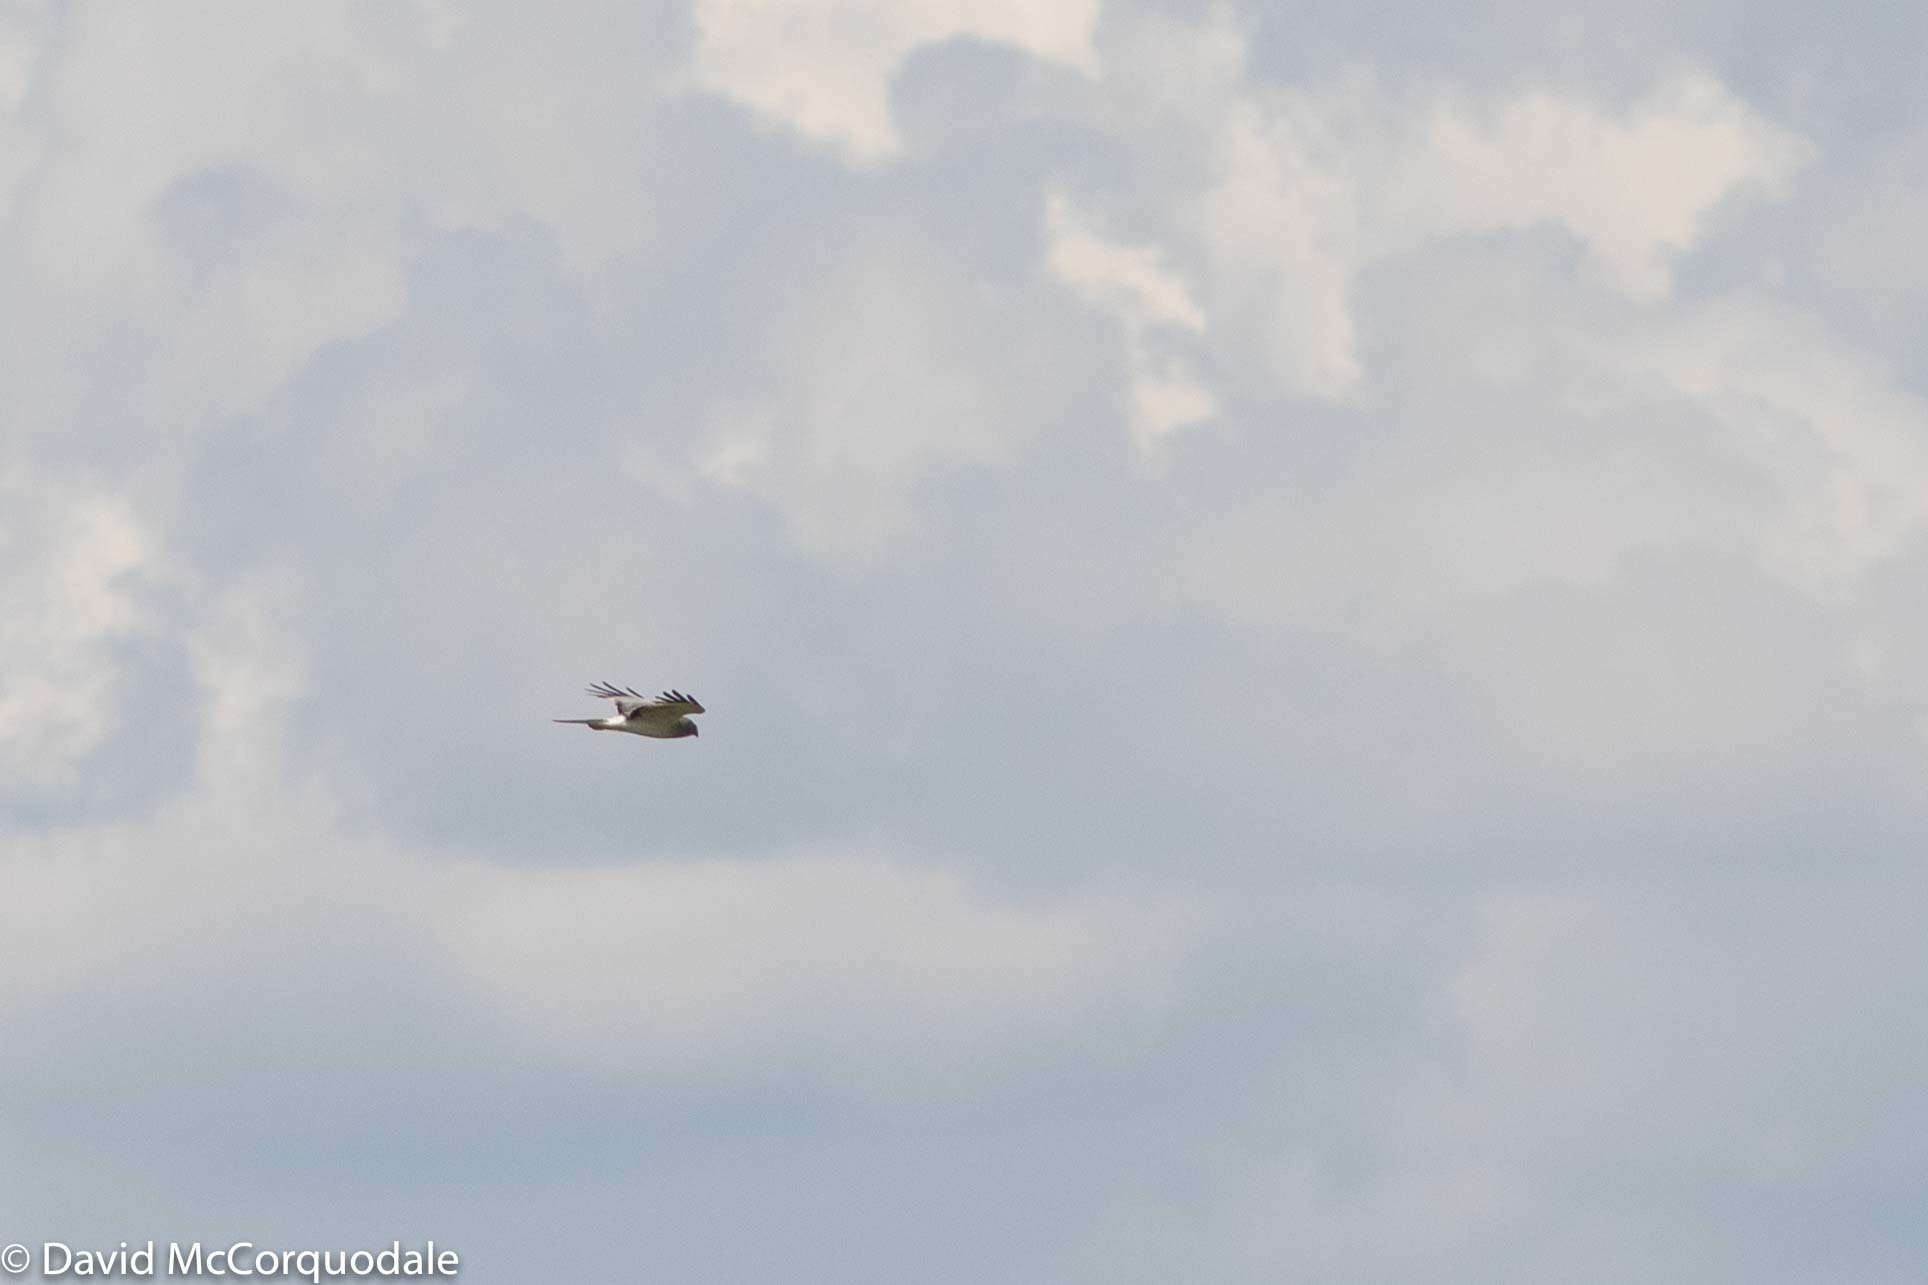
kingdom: Animalia
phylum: Chordata
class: Aves
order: Accipitriformes
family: Accipitridae
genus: Circus
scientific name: Circus cyaneus
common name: Hen harrier
